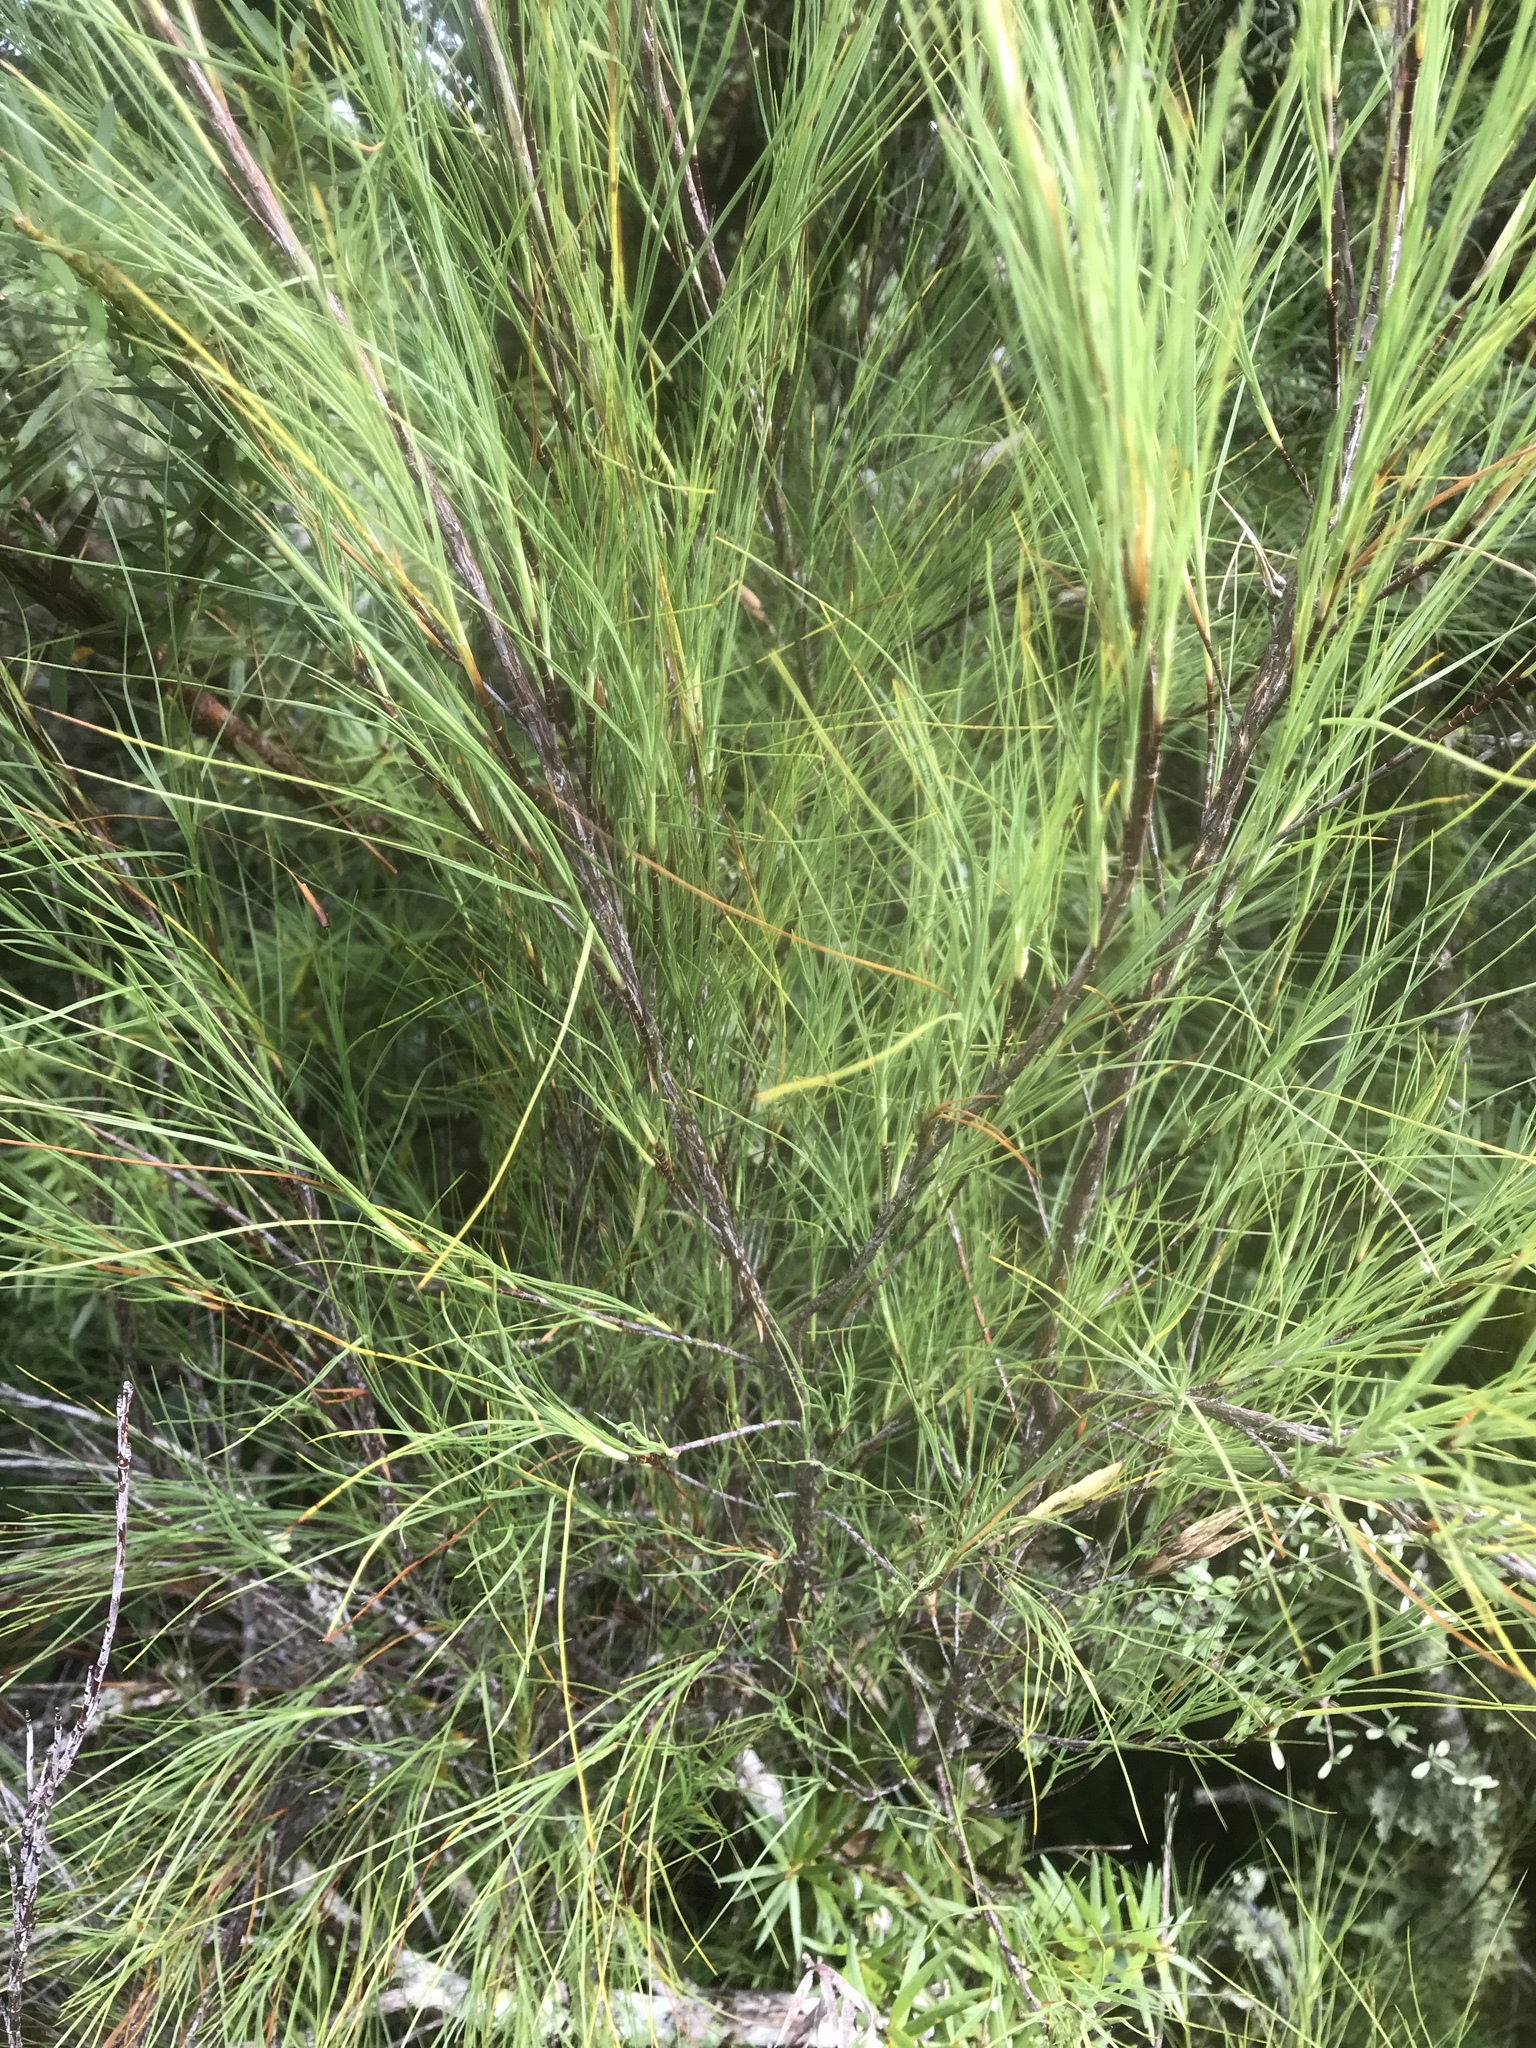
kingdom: Plantae
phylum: Tracheophyta
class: Magnoliopsida
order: Ericales
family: Ericaceae
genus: Dracophyllum
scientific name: Dracophyllum filifolium
